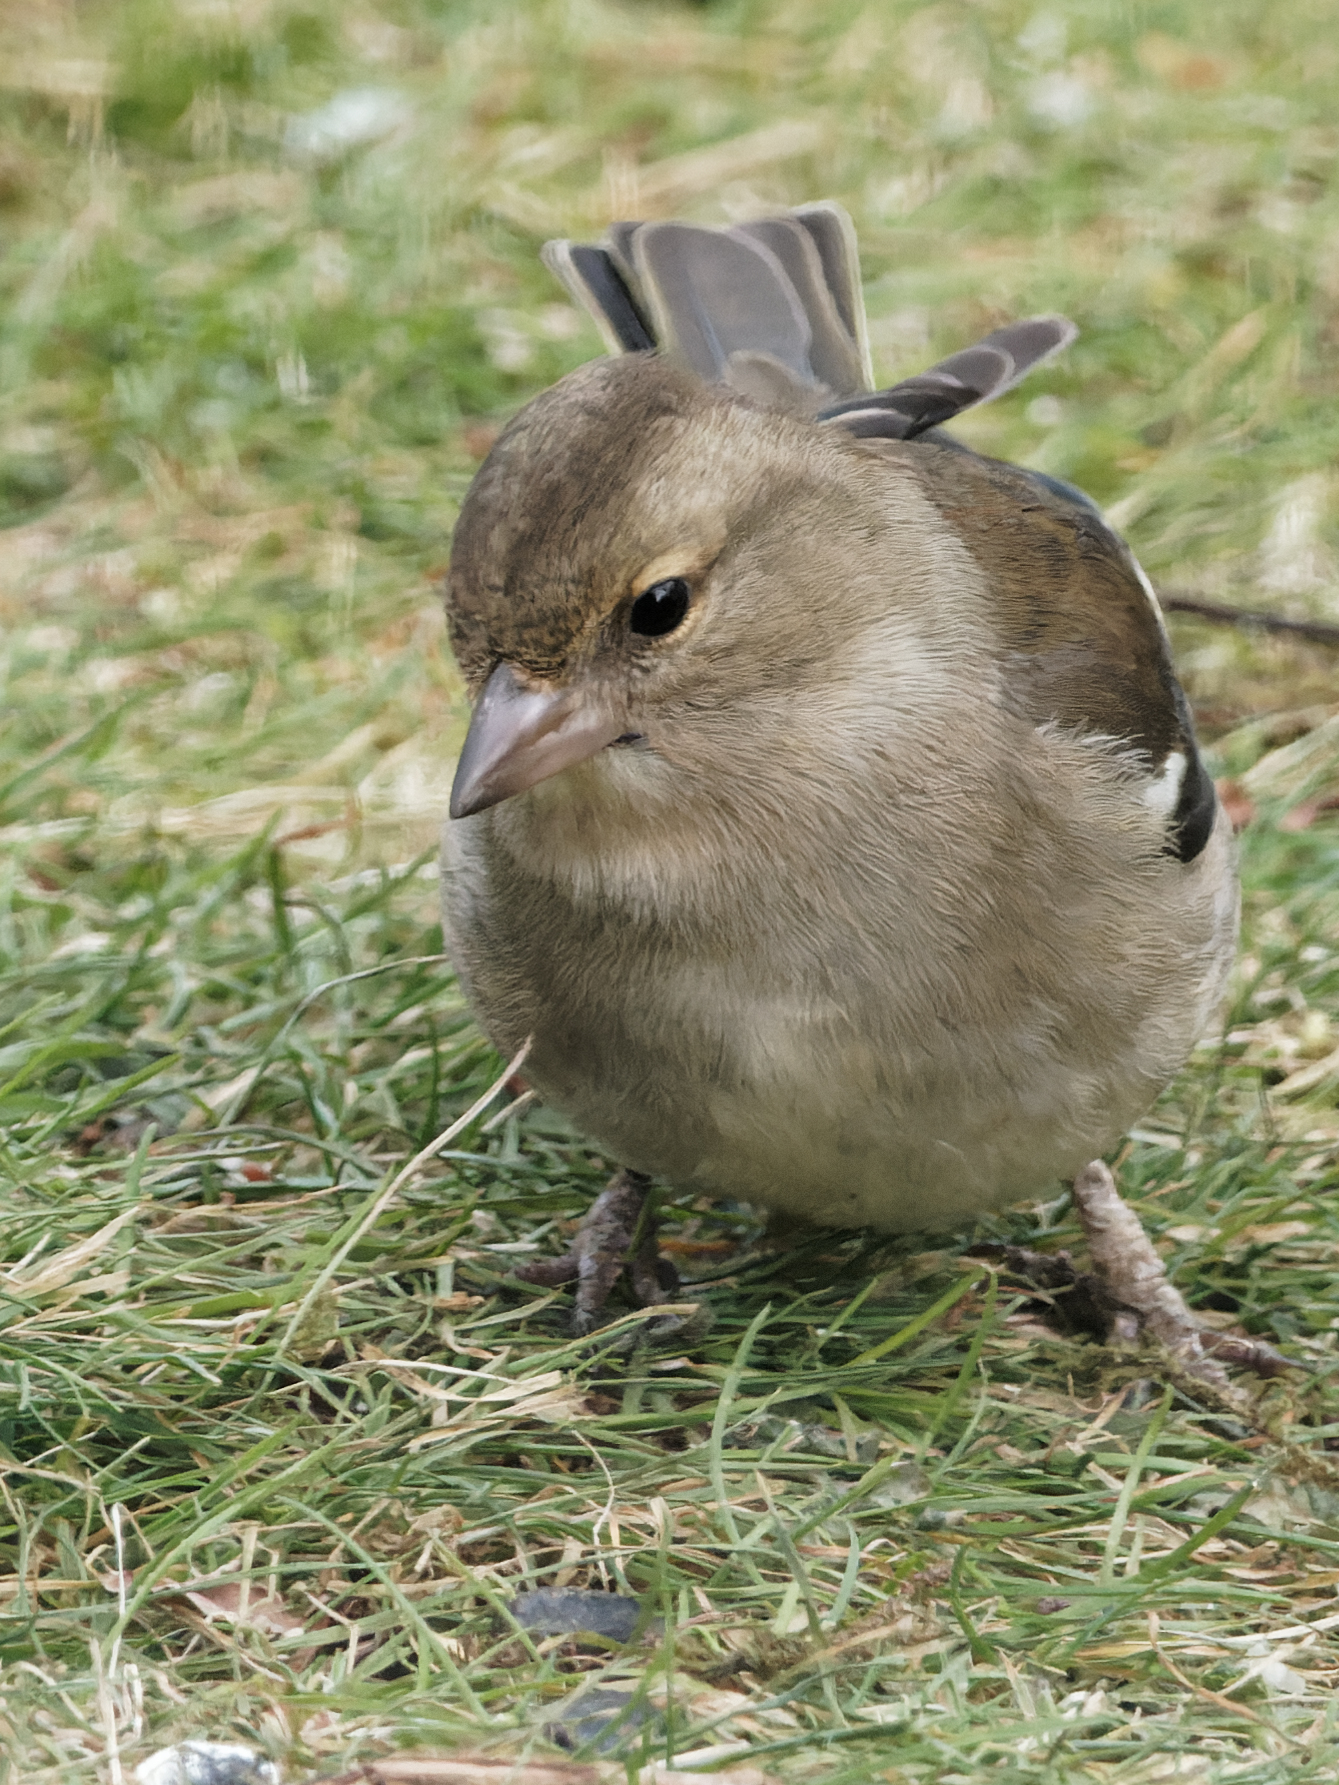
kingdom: Animalia
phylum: Chordata
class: Aves
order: Passeriformes
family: Fringillidae
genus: Fringilla
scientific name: Fringilla coelebs
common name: Common chaffinch
